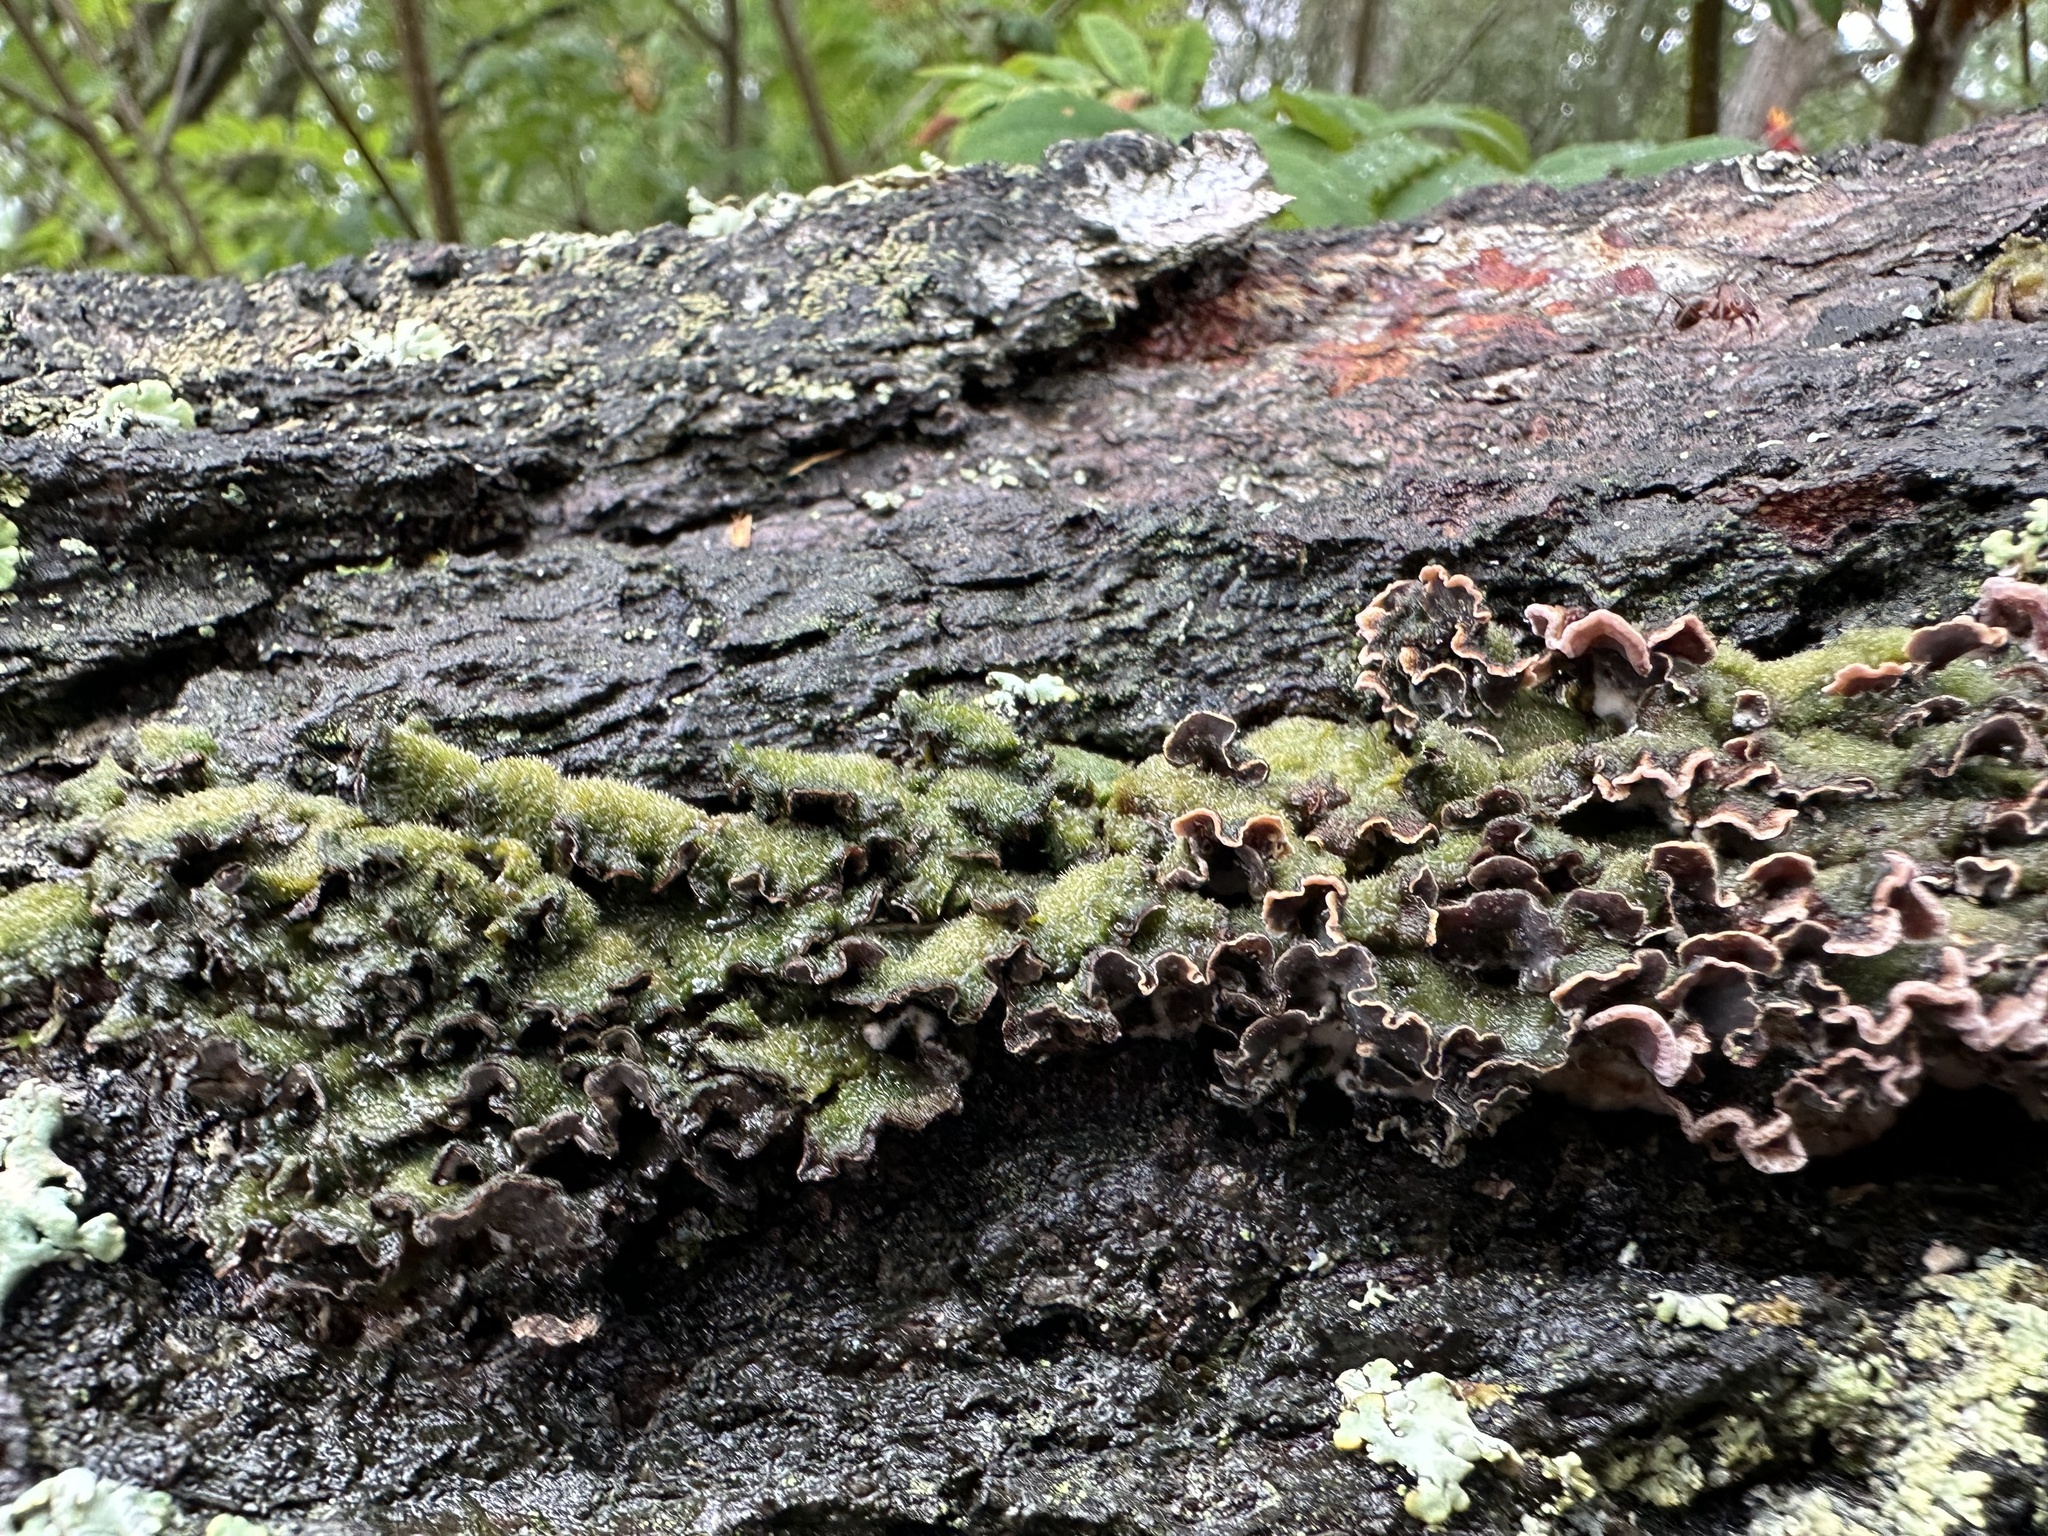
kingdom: Fungi
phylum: Basidiomycota
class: Agaricomycetes
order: Agaricales
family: Cyphellaceae
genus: Chondrostereum
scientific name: Chondrostereum purpureum
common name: Silver leaf disease
